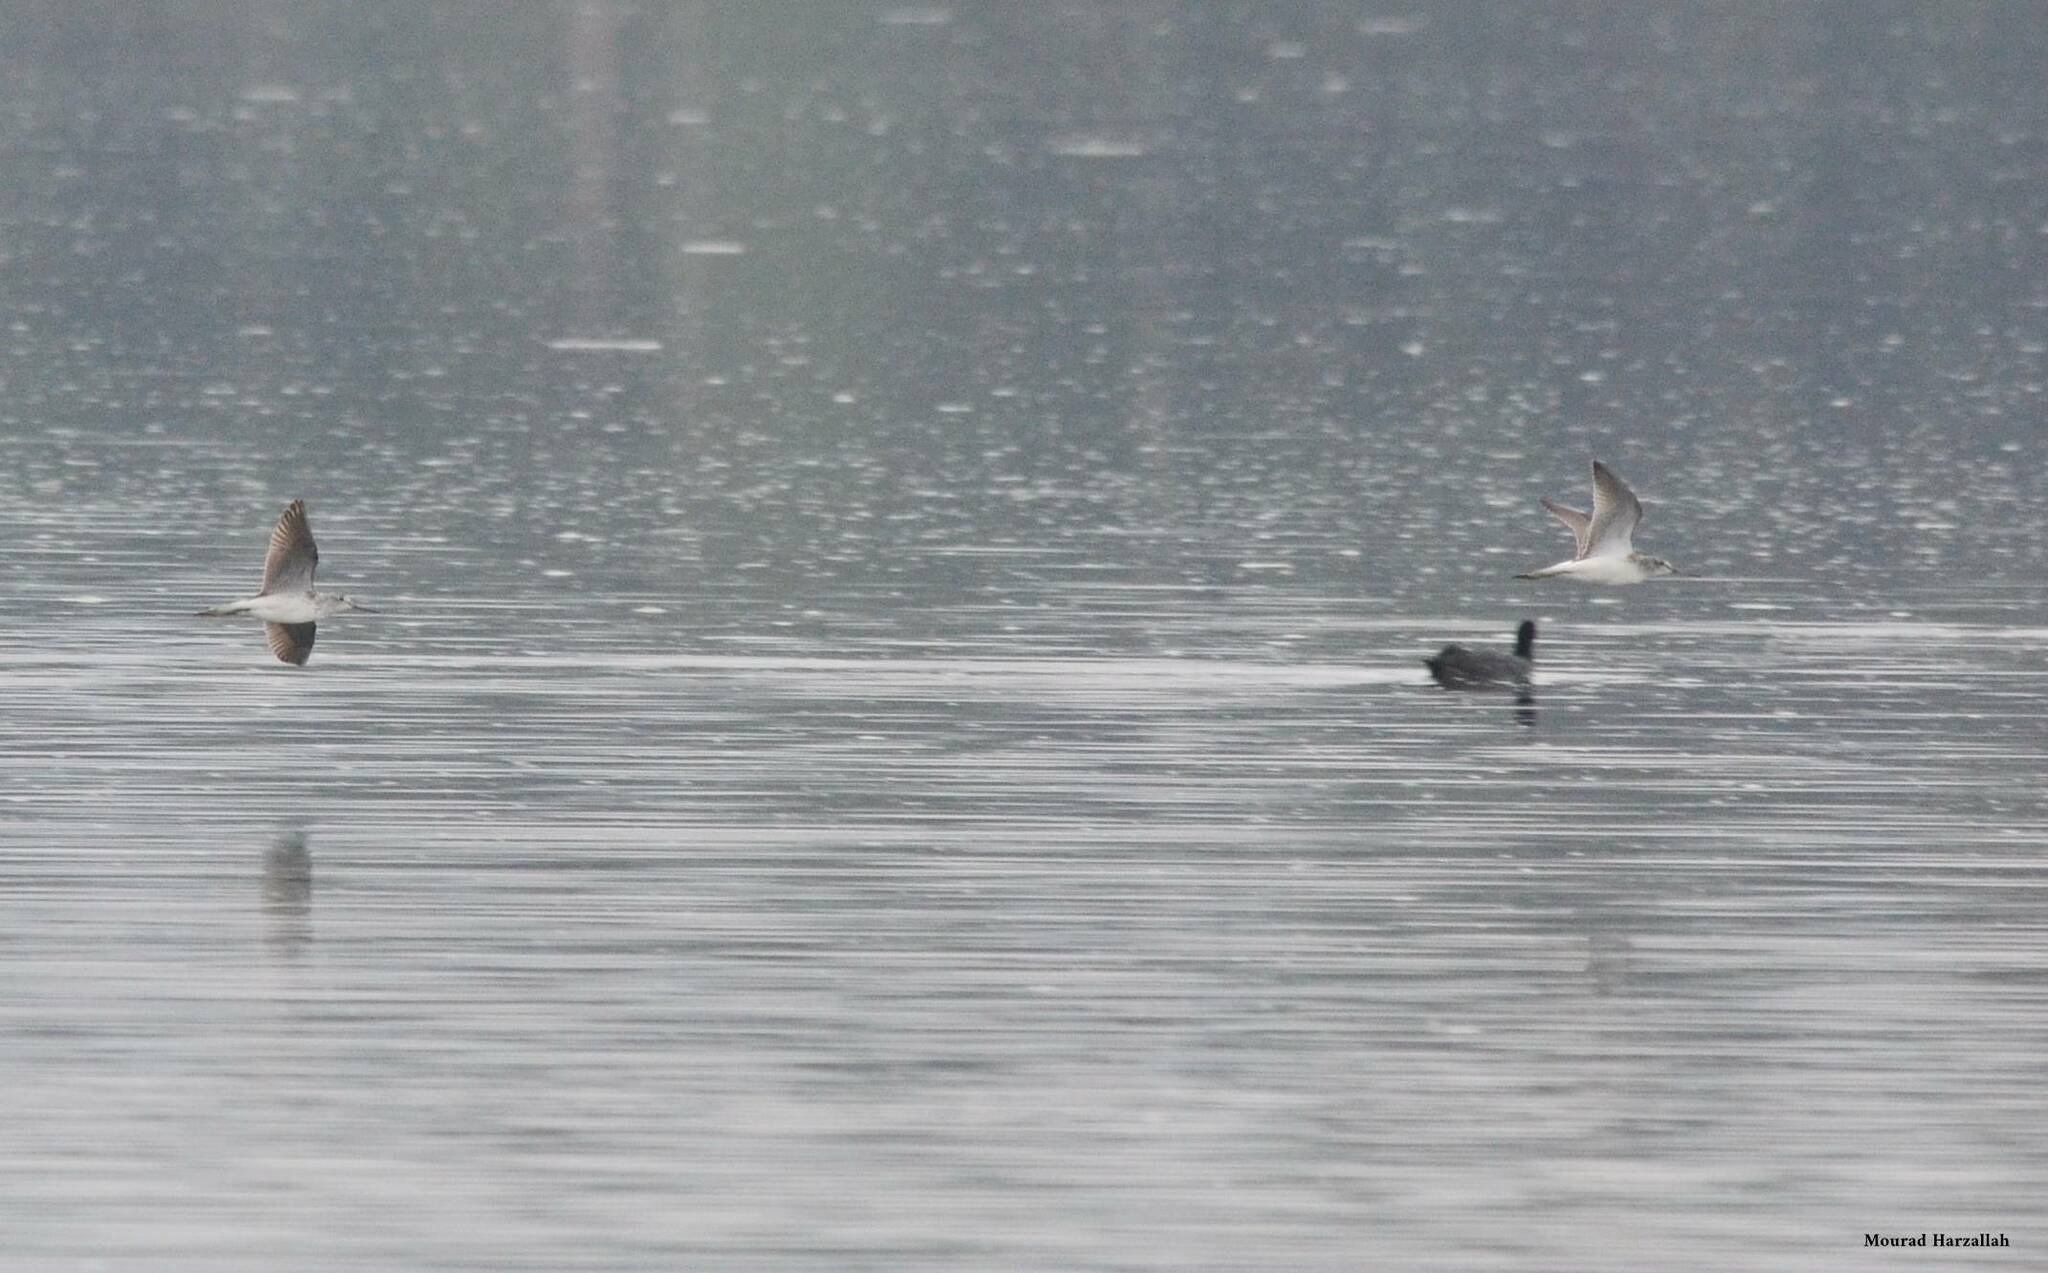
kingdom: Animalia
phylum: Chordata
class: Aves
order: Charadriiformes
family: Scolopacidae
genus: Tringa
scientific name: Tringa nebularia
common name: Common greenshank
